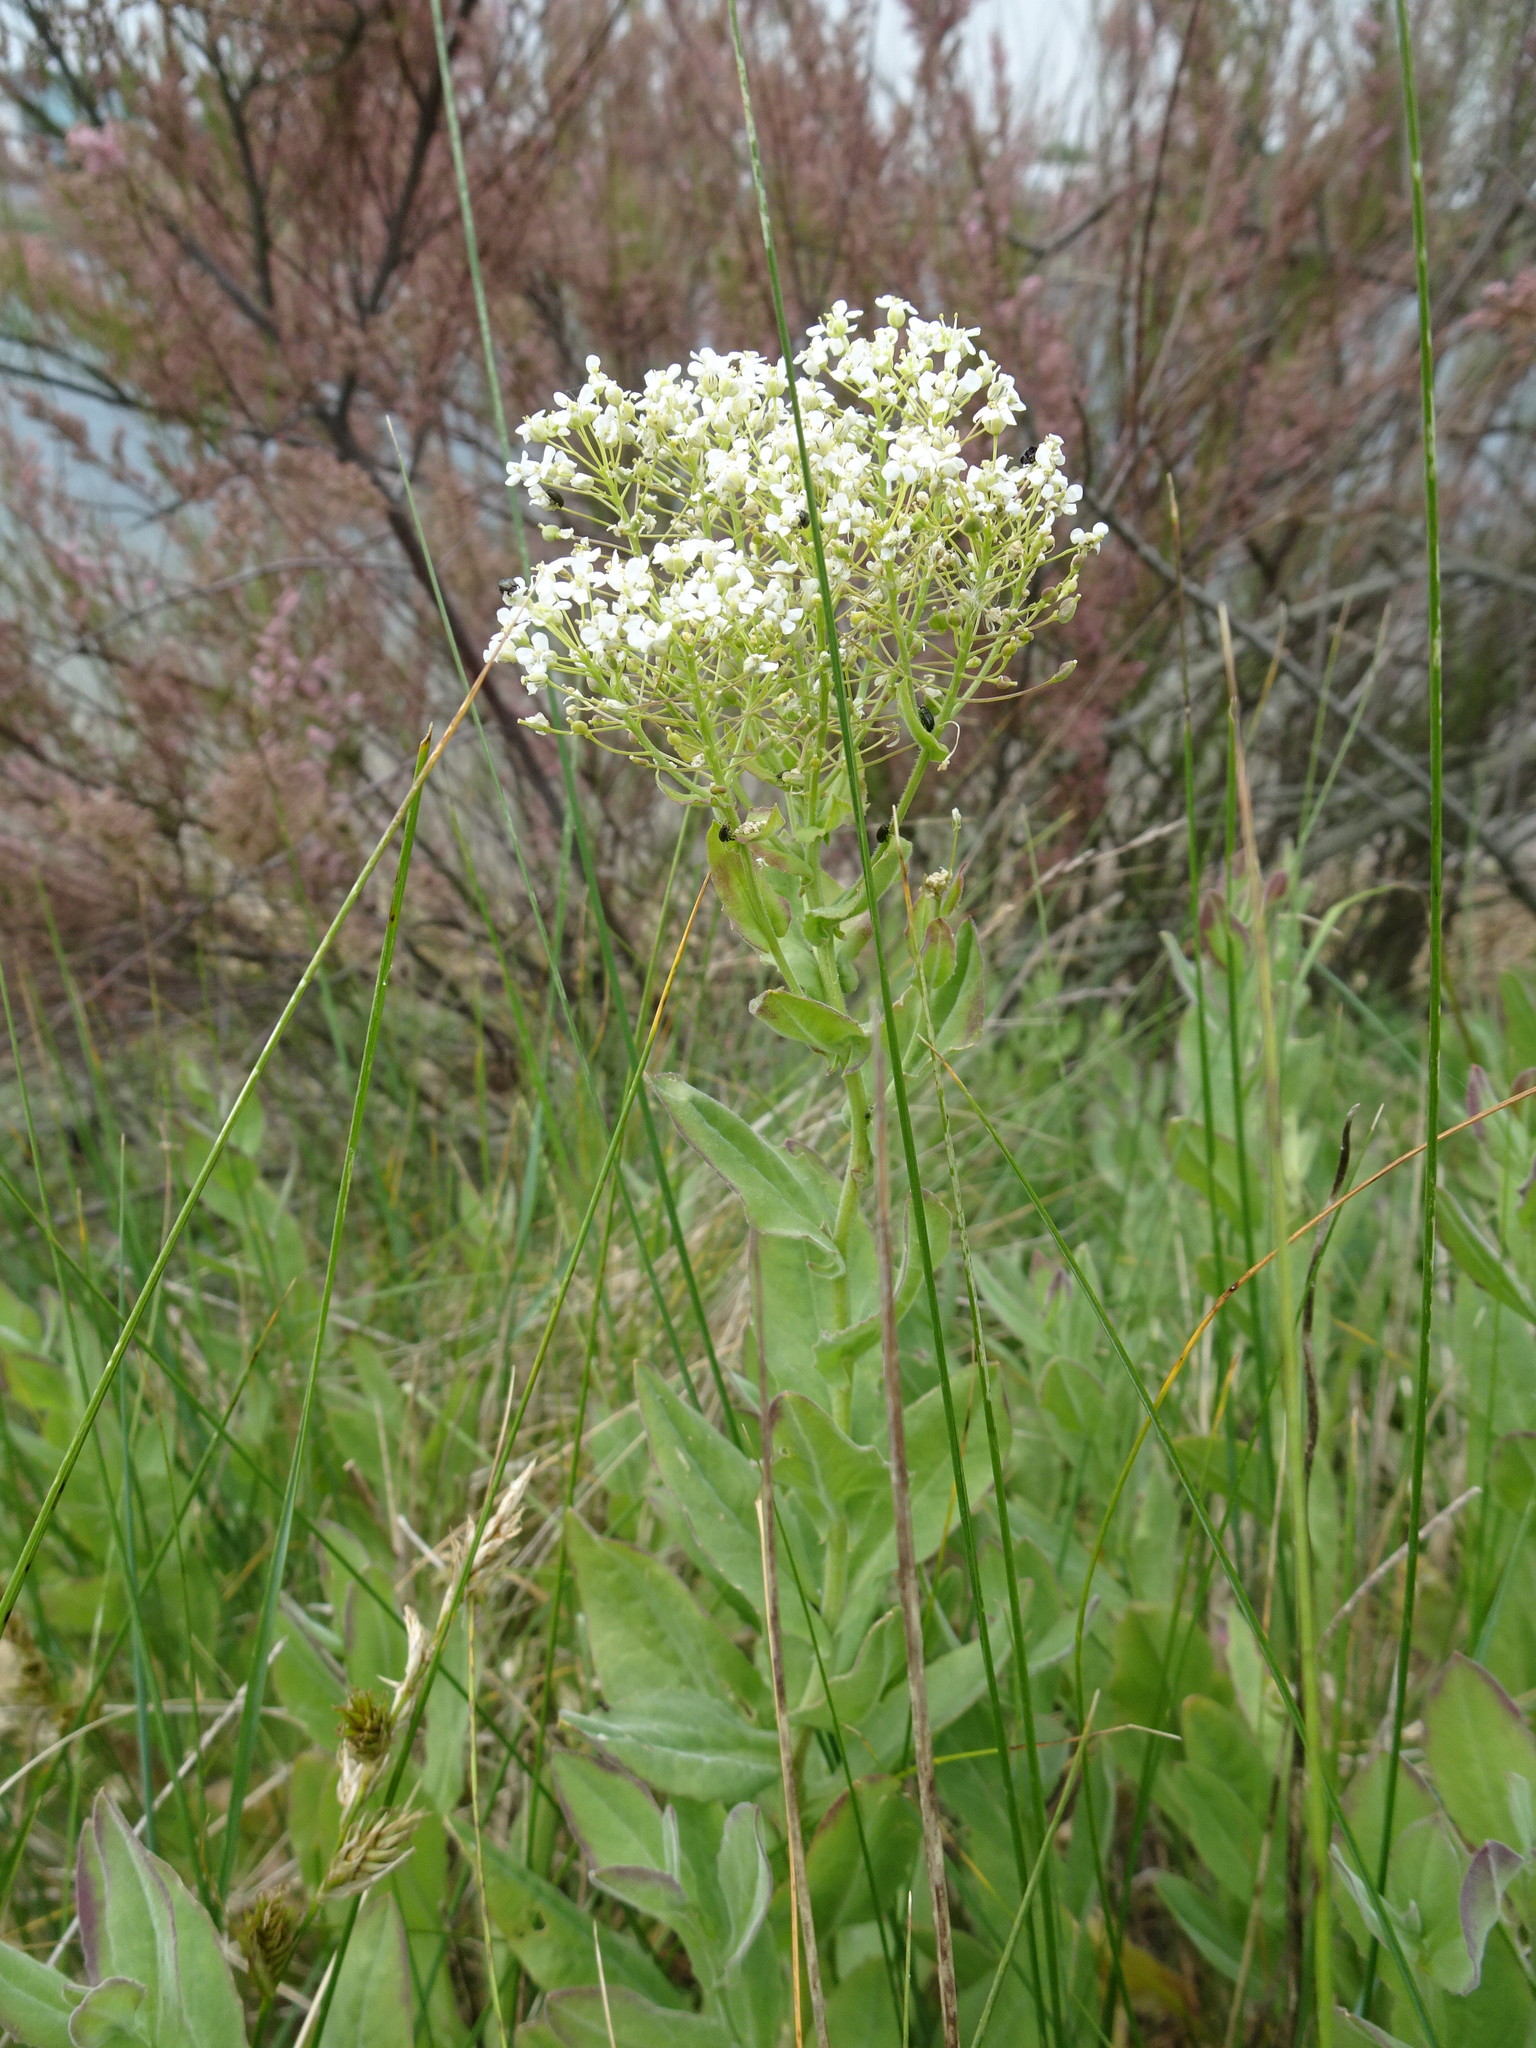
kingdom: Plantae
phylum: Tracheophyta
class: Magnoliopsida
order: Brassicales
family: Brassicaceae
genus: Lepidium
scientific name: Lepidium draba
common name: Hoary cress
